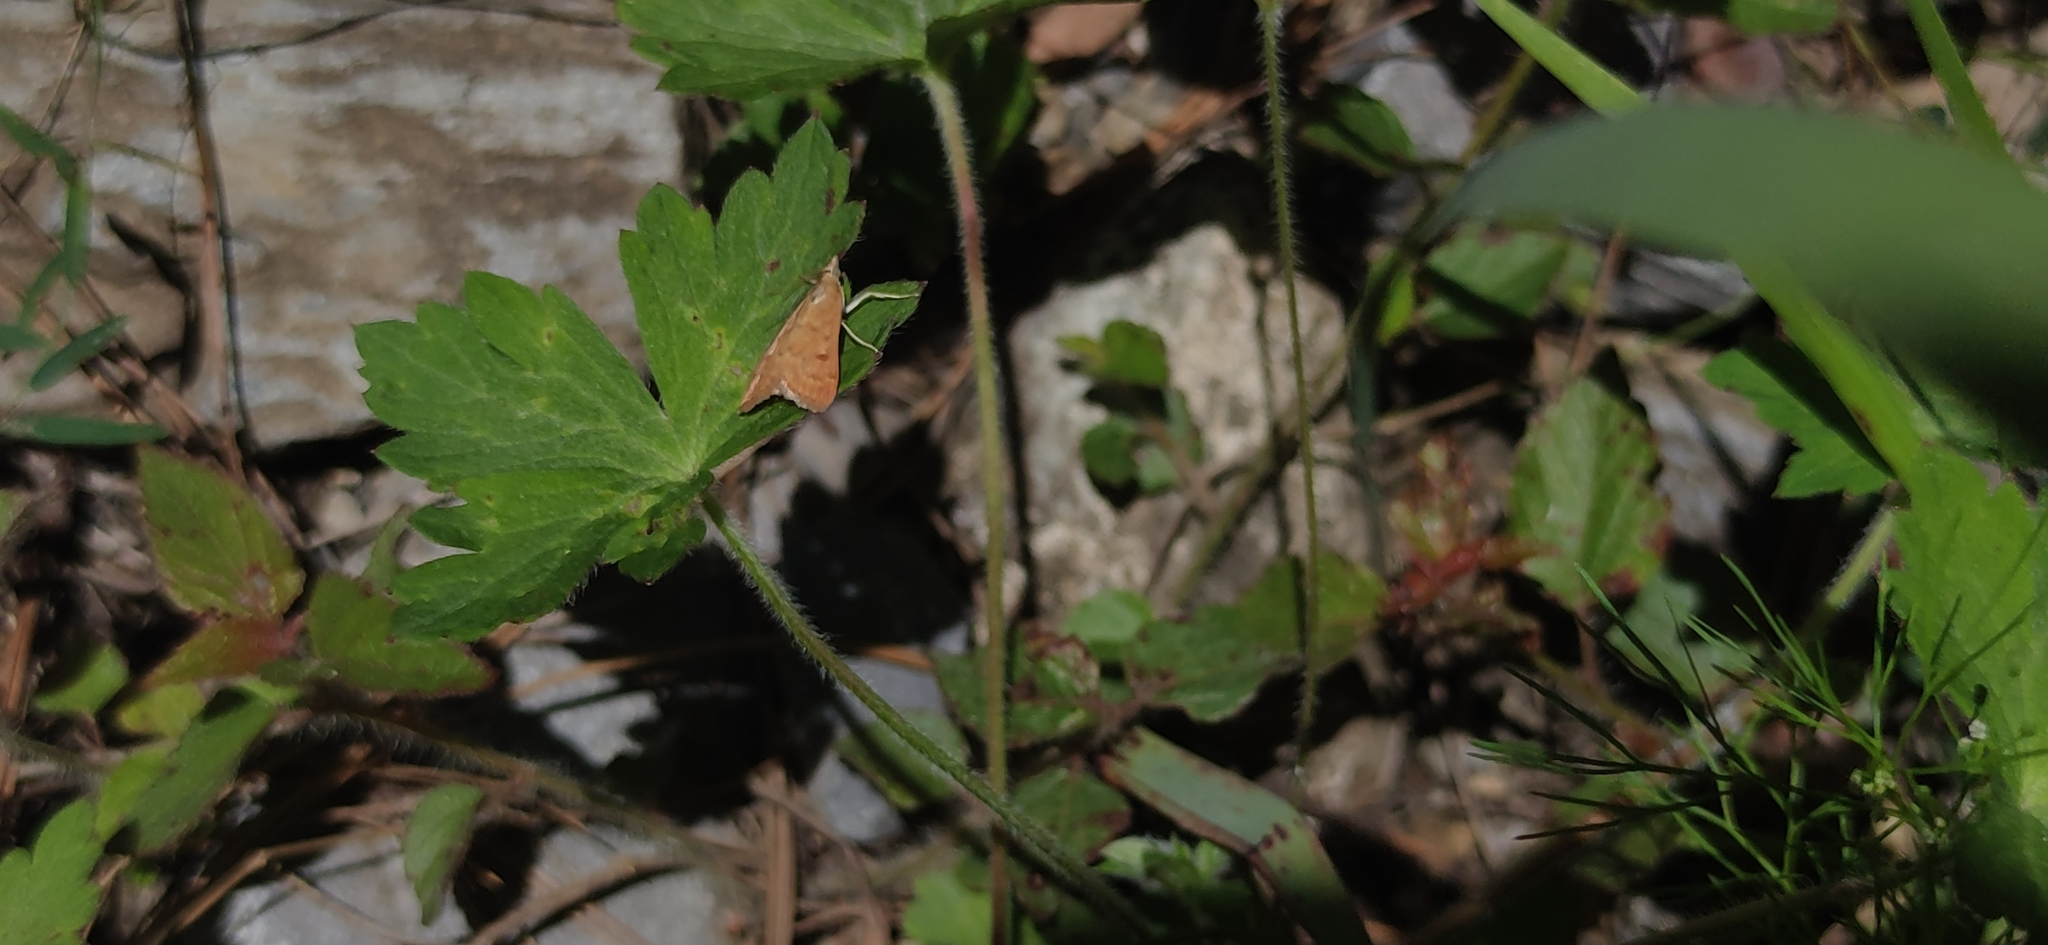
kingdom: Animalia
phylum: Arthropoda
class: Insecta
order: Lepidoptera
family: Crambidae
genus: Achyra
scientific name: Achyra rantalis
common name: Garden webworm
